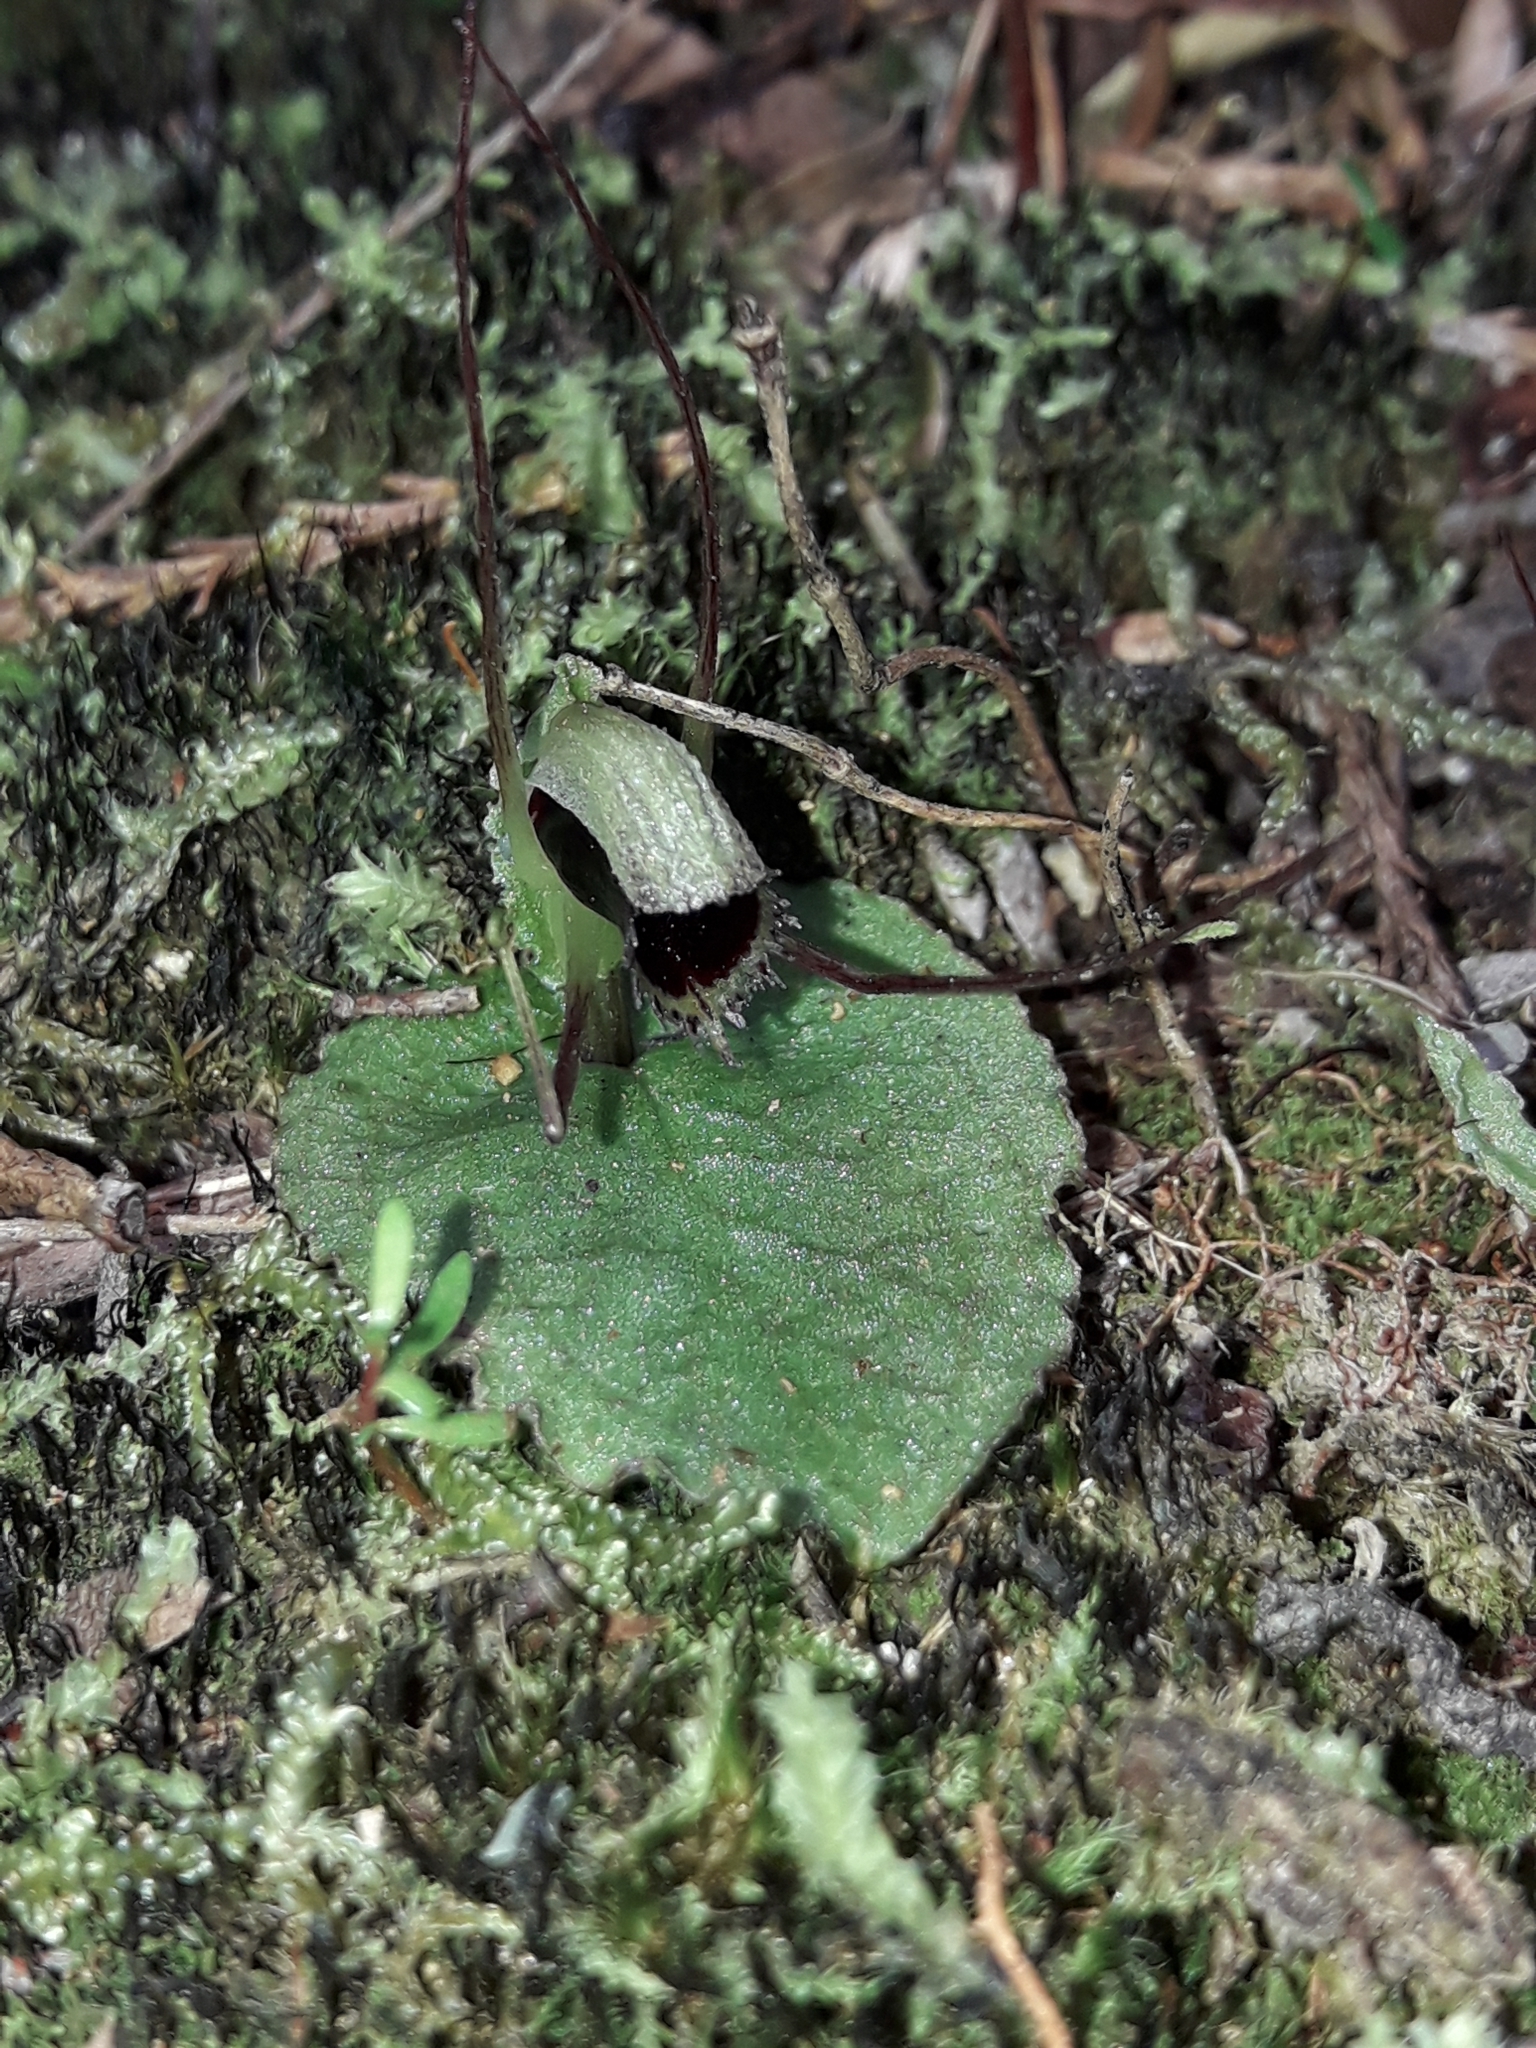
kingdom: Plantae
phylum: Tracheophyta
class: Liliopsida
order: Asparagales
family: Orchidaceae
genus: Corybas
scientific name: Corybas oblongus
